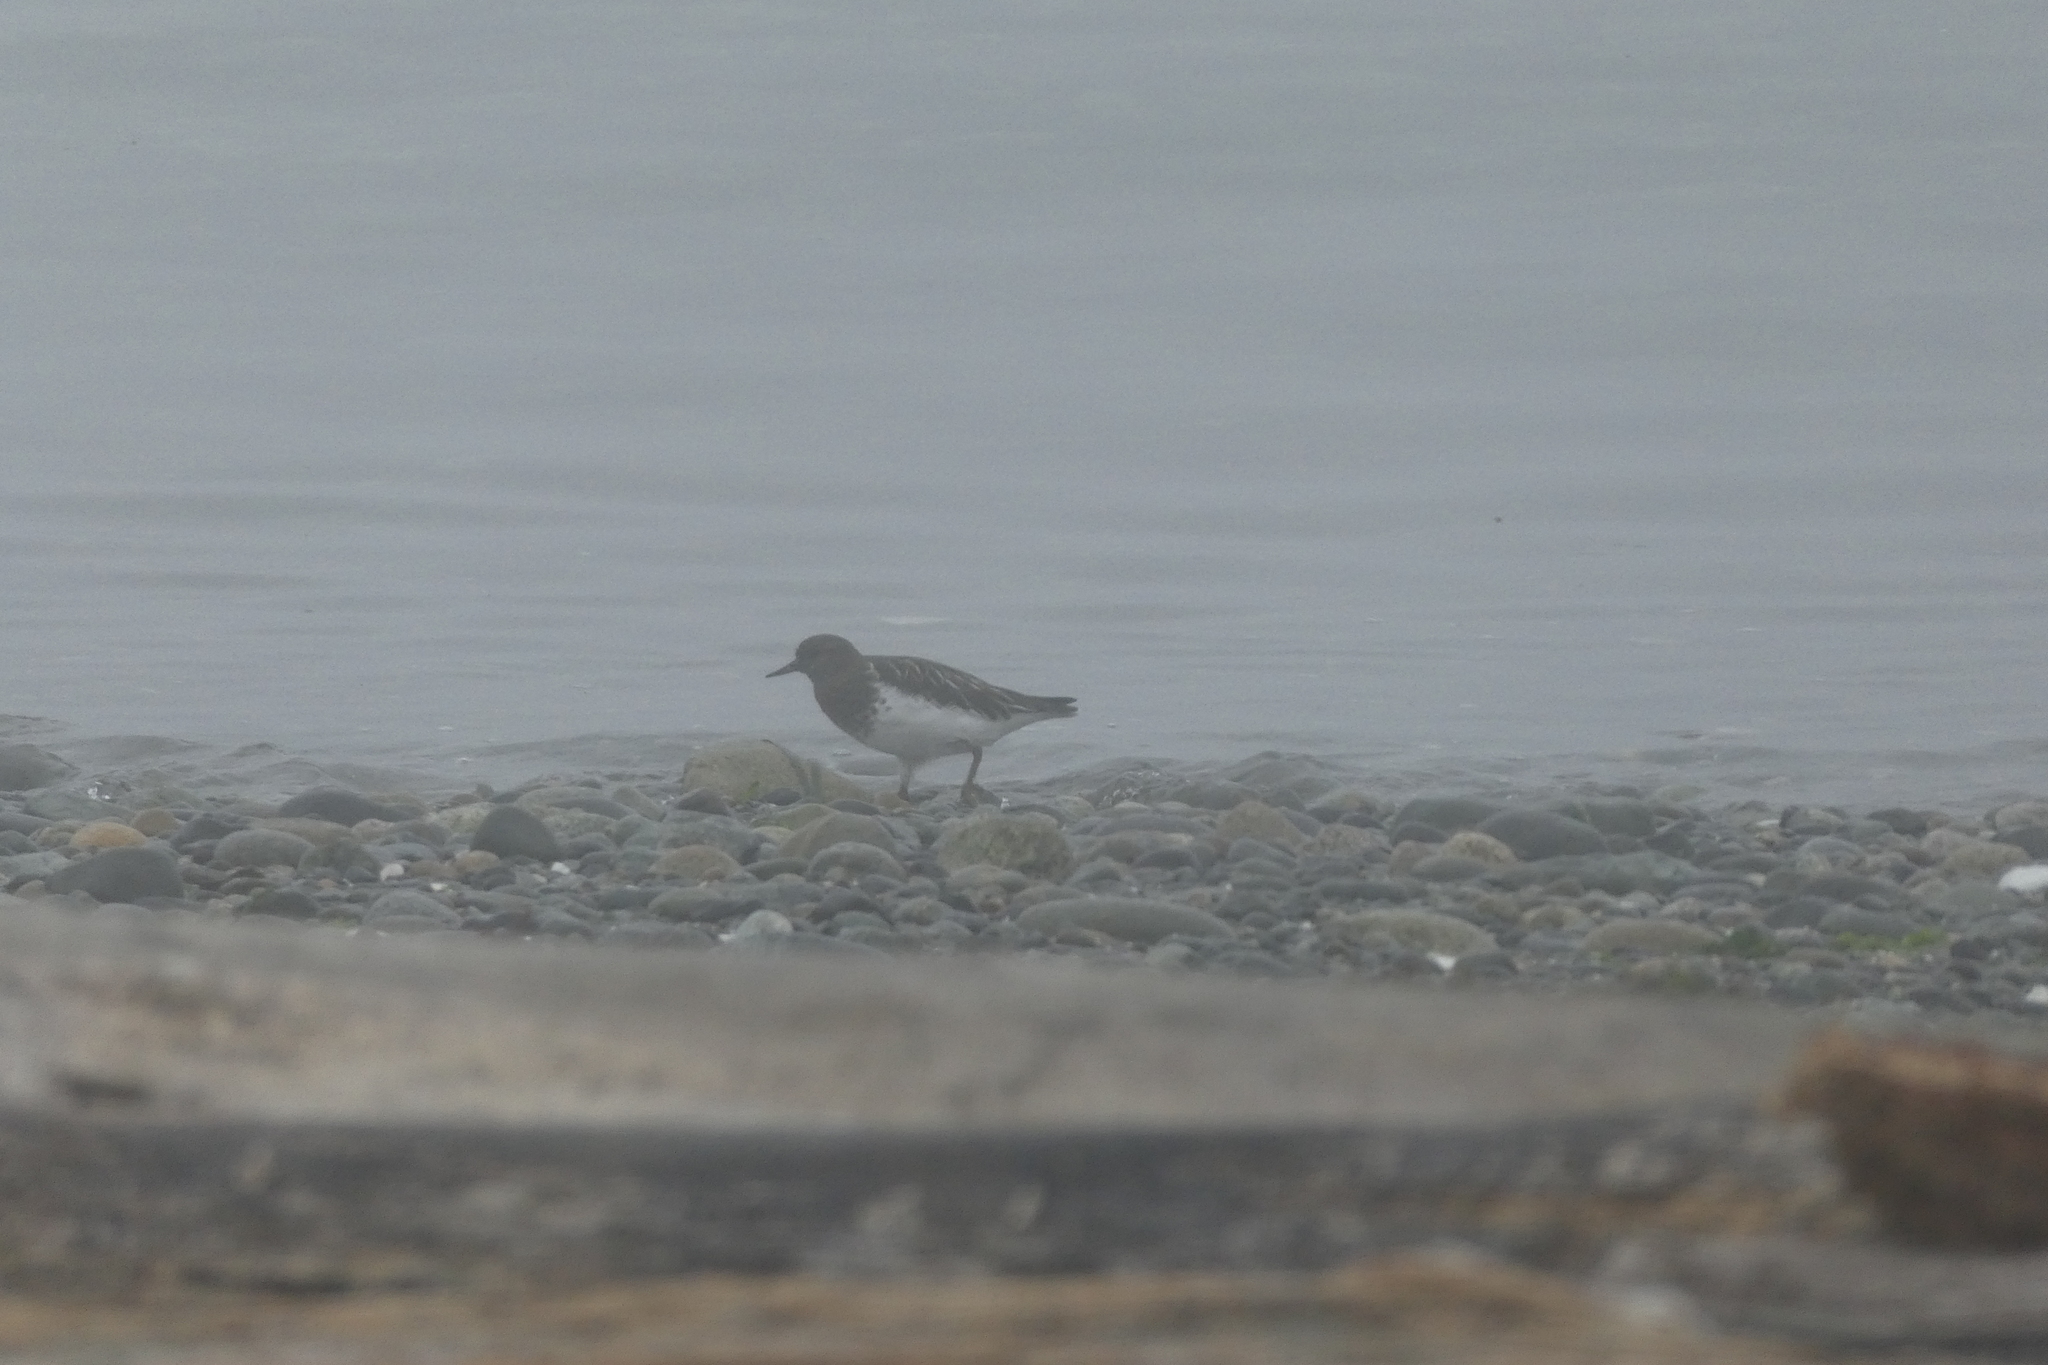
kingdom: Animalia
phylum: Chordata
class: Aves
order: Charadriiformes
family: Scolopacidae
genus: Arenaria
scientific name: Arenaria melanocephala
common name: Black turnstone
